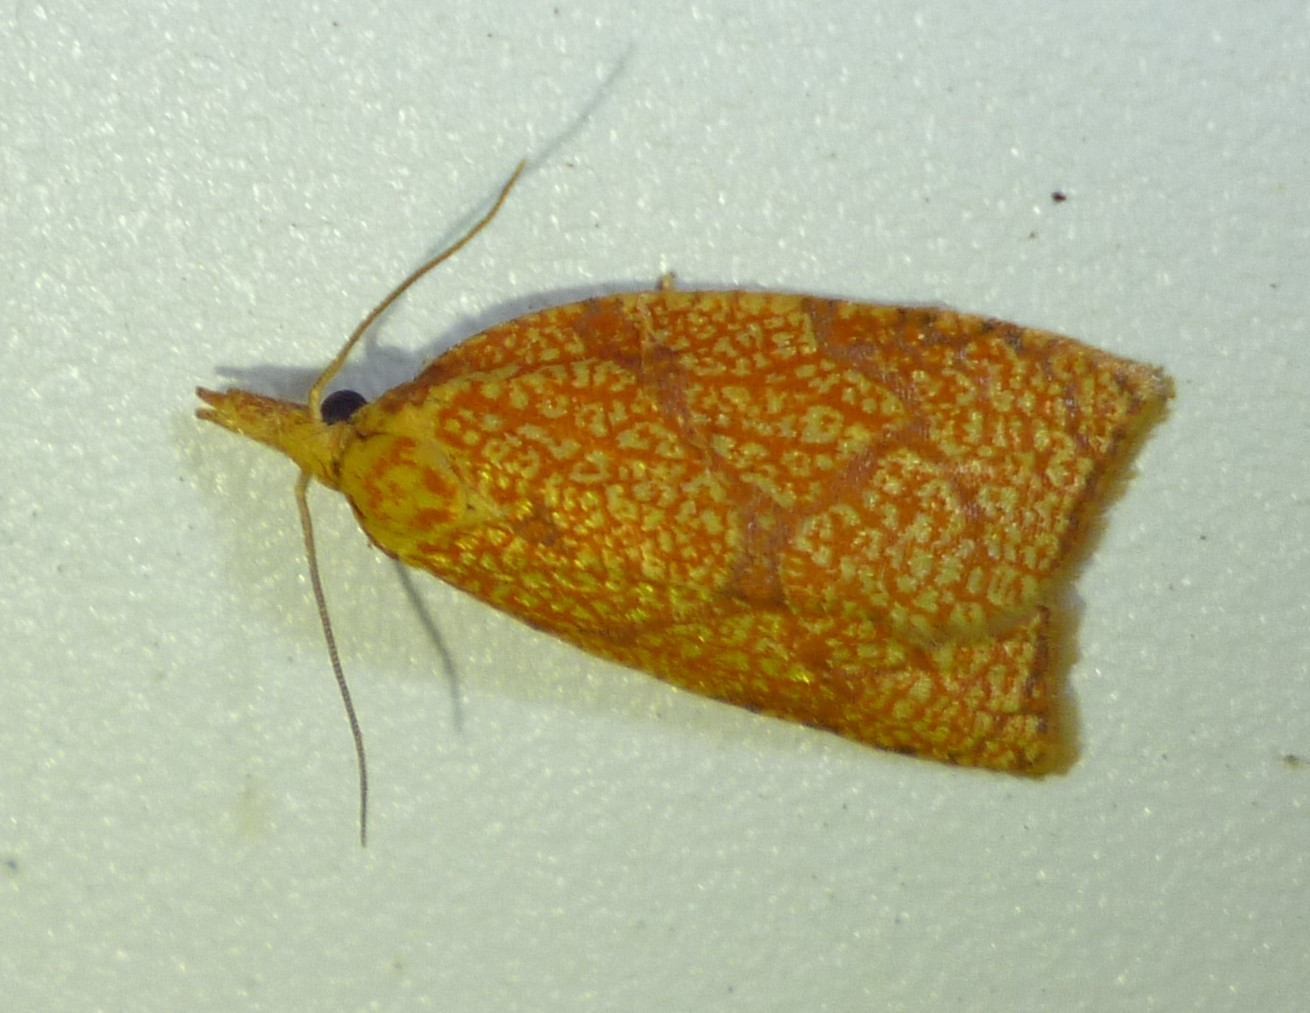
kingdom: Animalia
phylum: Arthropoda
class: Insecta
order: Lepidoptera
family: Tortricidae
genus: Cenopis
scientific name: Cenopis reticulatana
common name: Reticulated fruitworm moth
